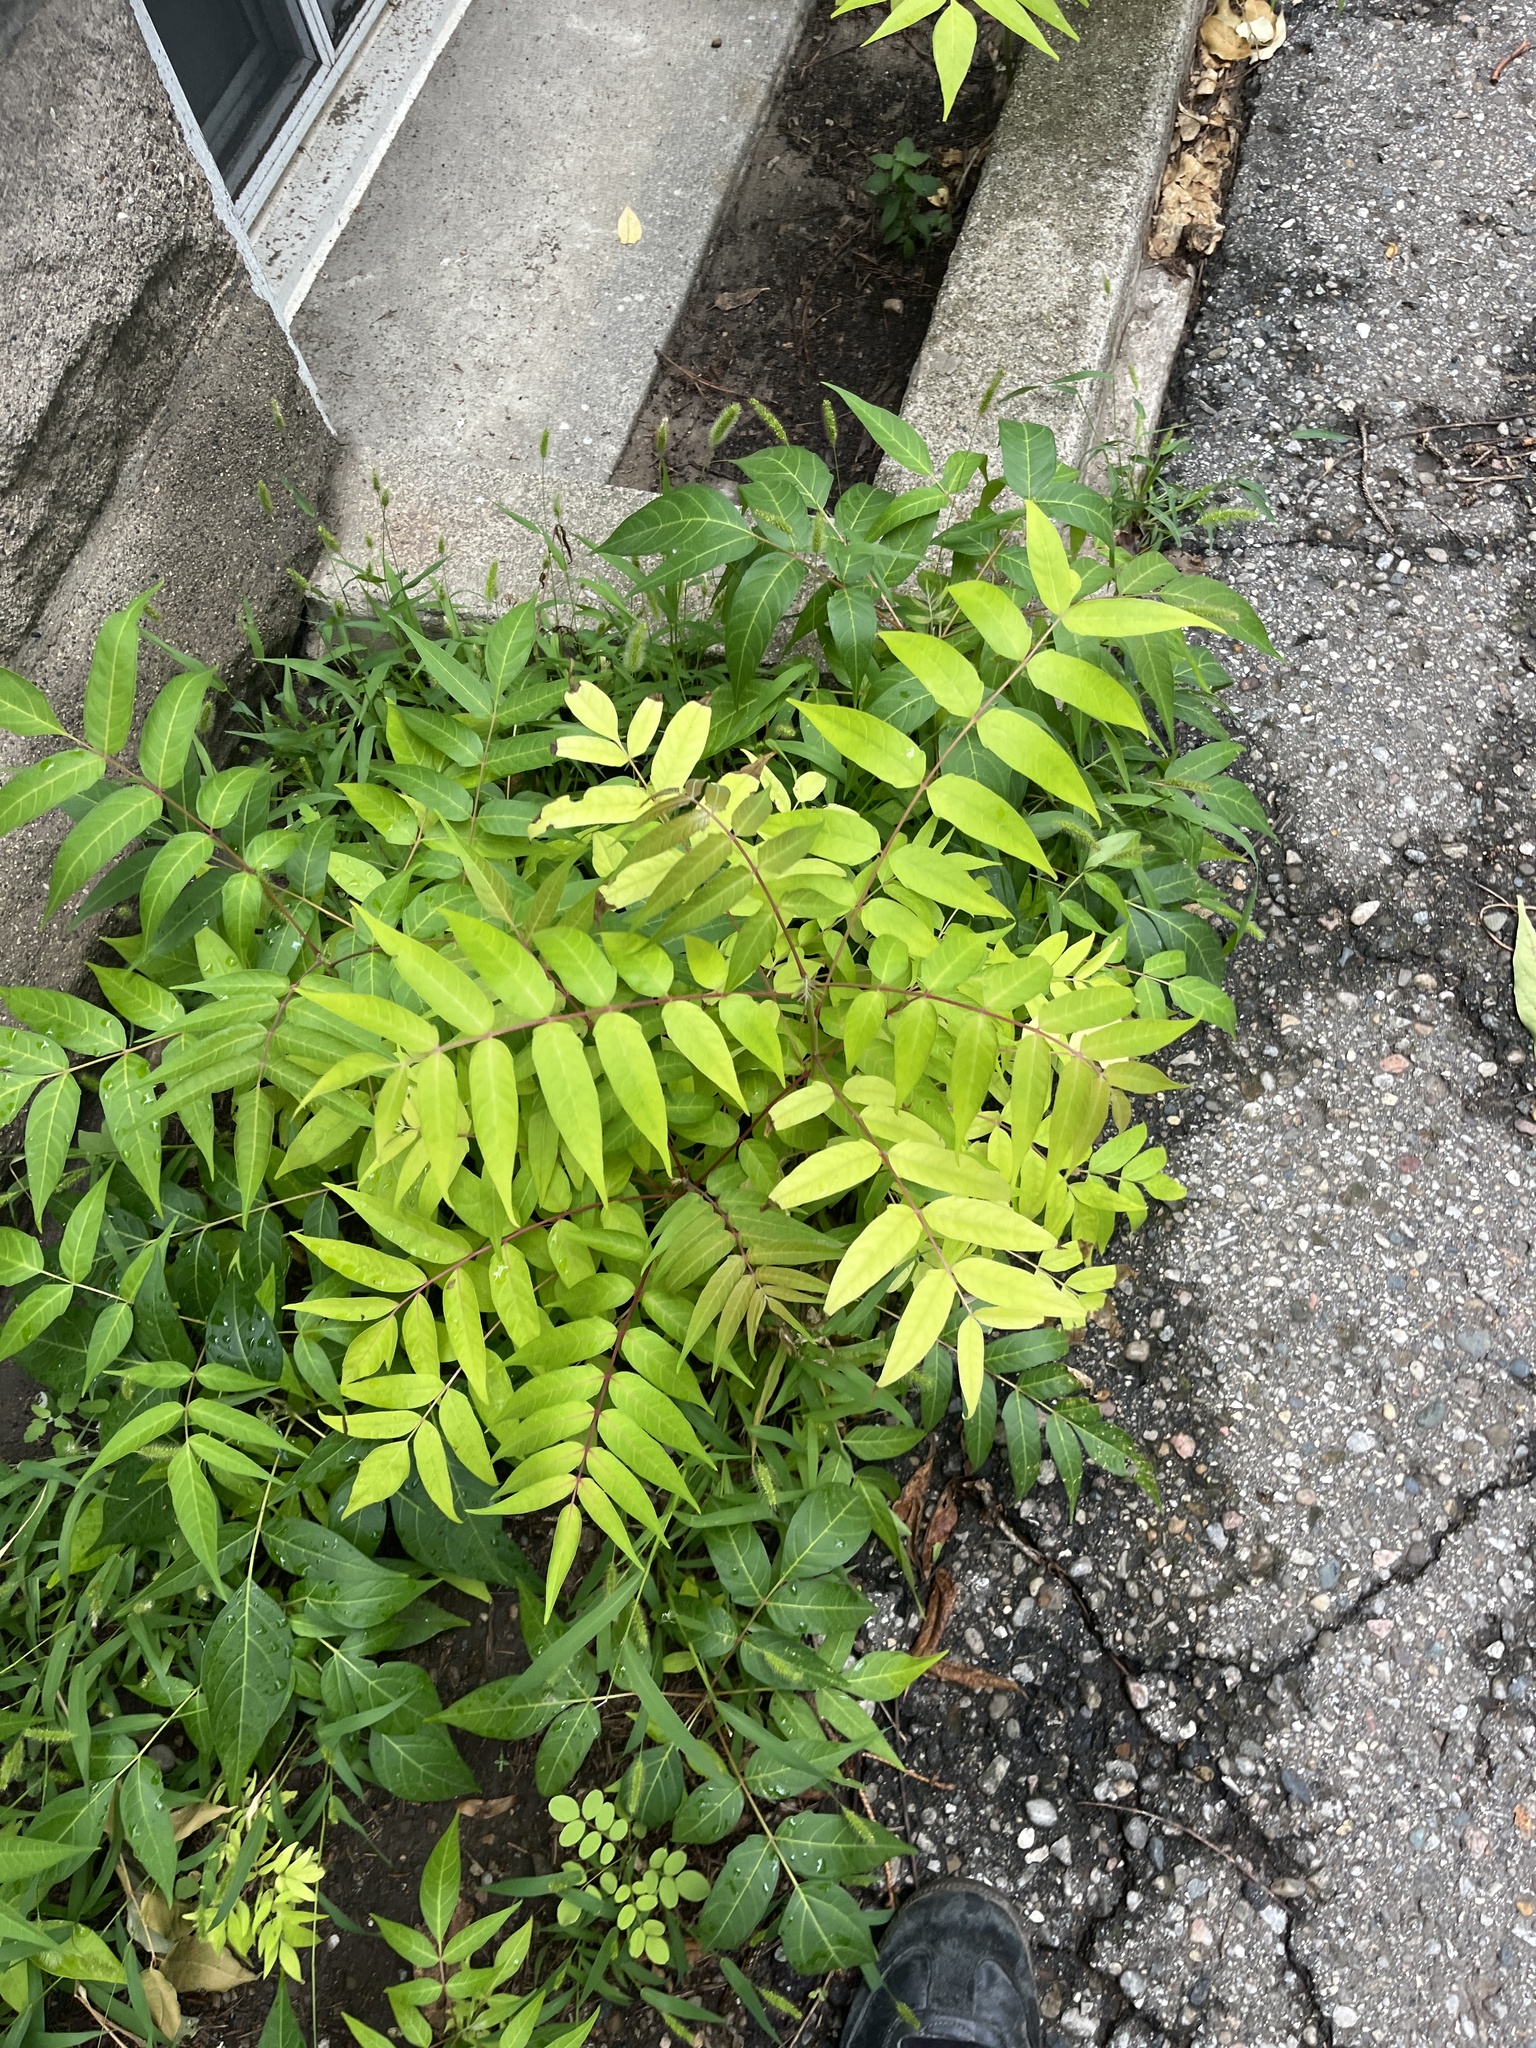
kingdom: Plantae
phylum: Tracheophyta
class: Magnoliopsida
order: Sapindales
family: Simaroubaceae
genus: Ailanthus
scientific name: Ailanthus altissima
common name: Tree-of-heaven
